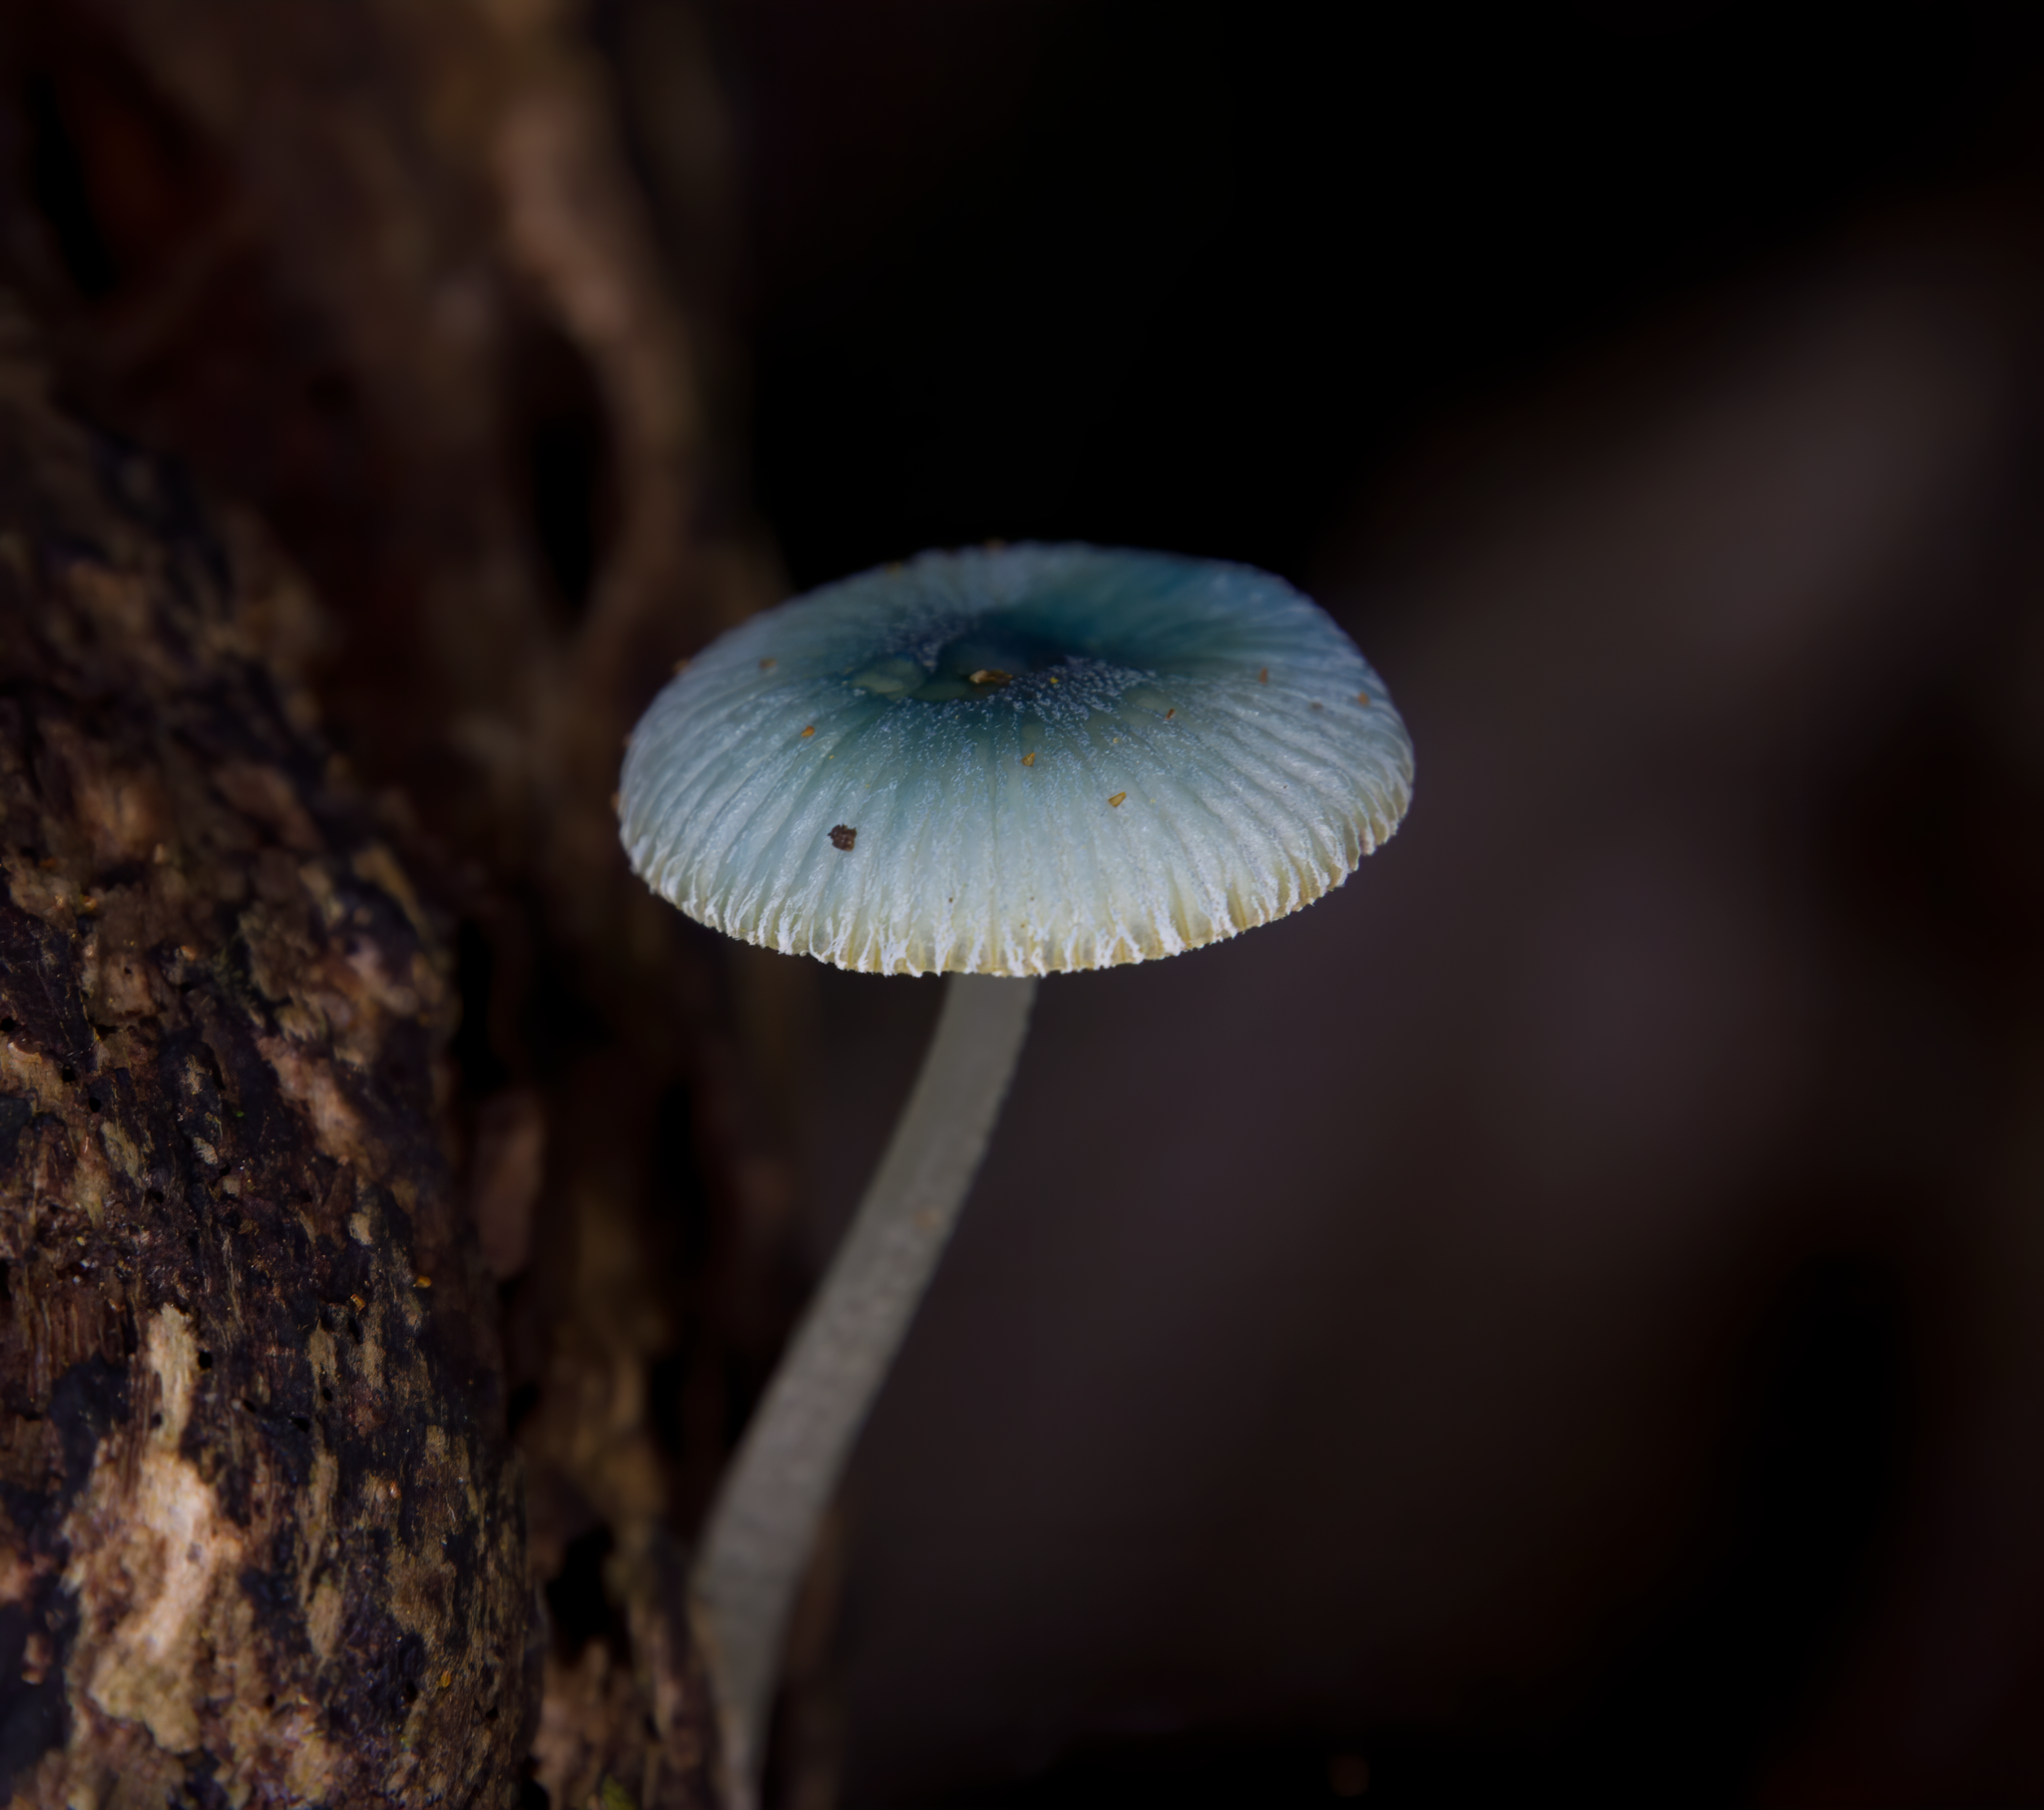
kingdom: Fungi
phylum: Basidiomycota
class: Agaricomycetes
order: Agaricales
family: Mycenaceae
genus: Mycena
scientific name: Mycena interrupta
